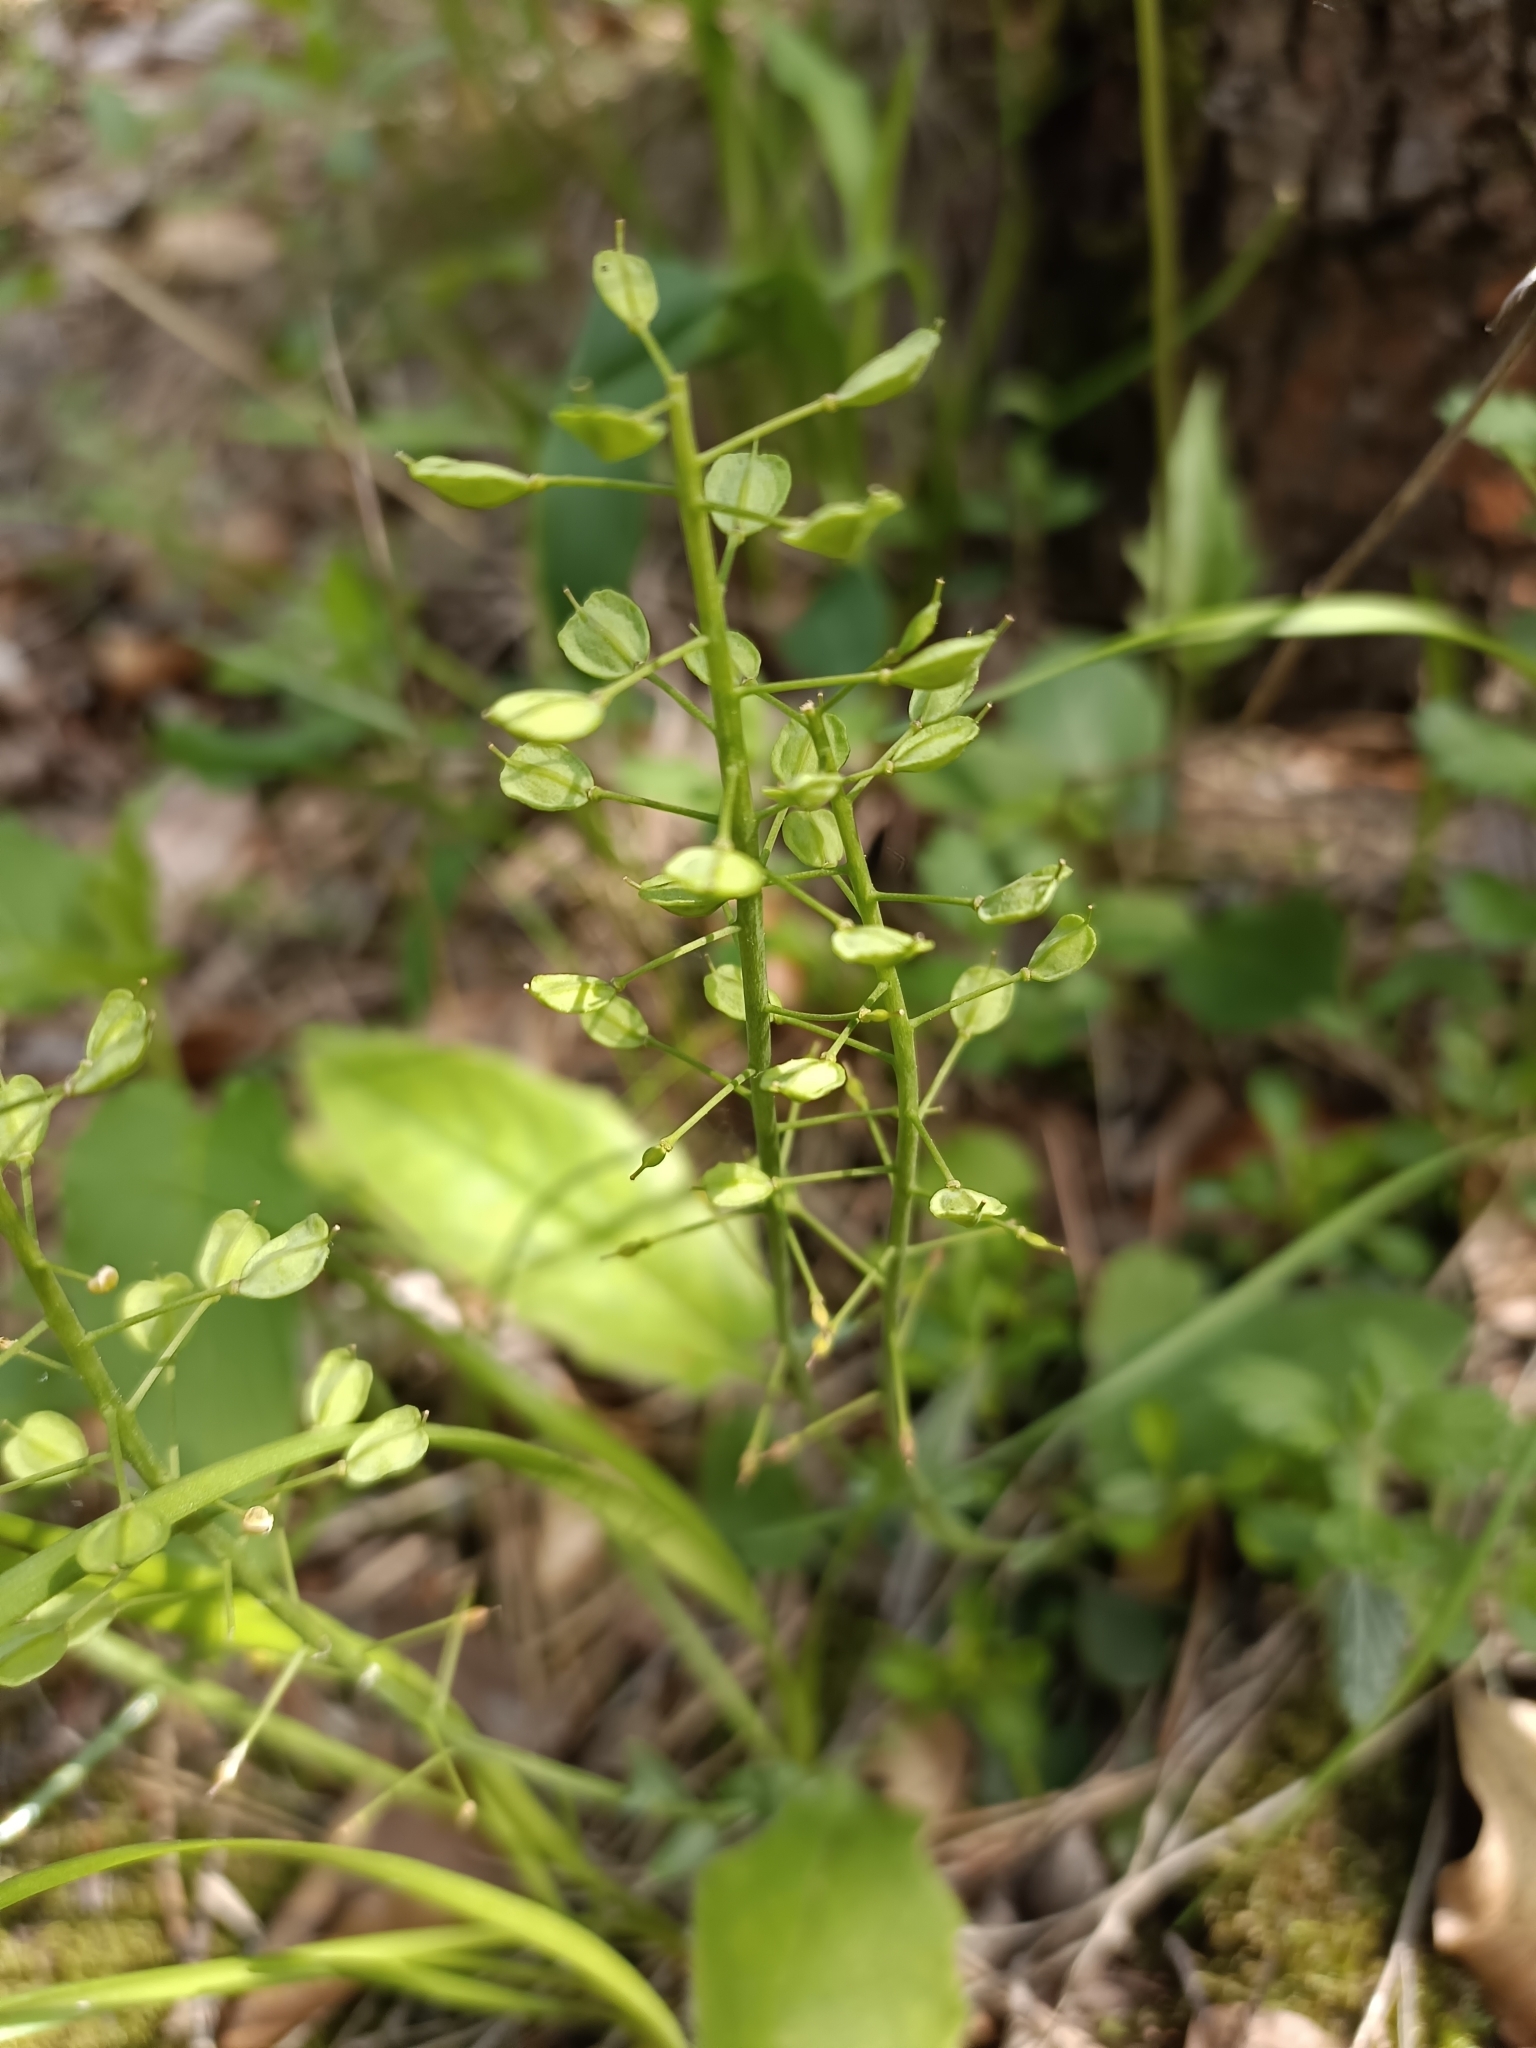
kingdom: Plantae
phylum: Tracheophyta
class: Magnoliopsida
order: Brassicales
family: Brassicaceae
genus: Noccaea
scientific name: Noccaea montana
